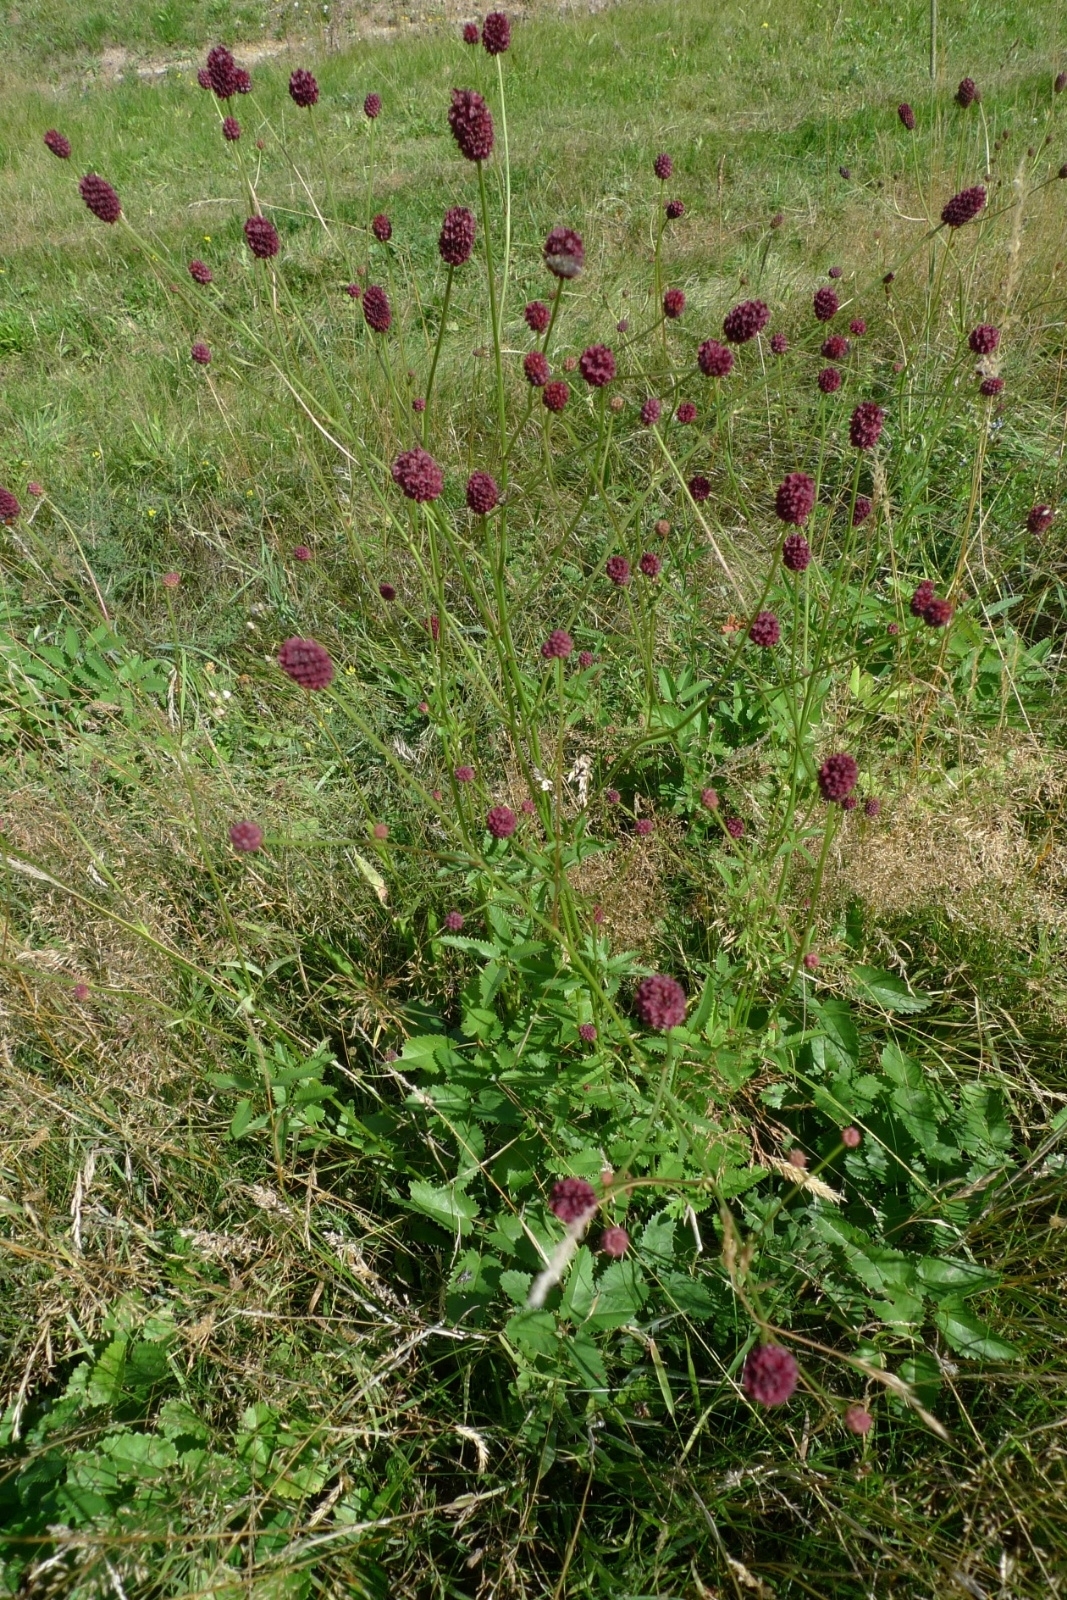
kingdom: Plantae
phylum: Tracheophyta
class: Magnoliopsida
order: Rosales
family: Rosaceae
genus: Sanguisorba
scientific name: Sanguisorba officinalis
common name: Great burnet
